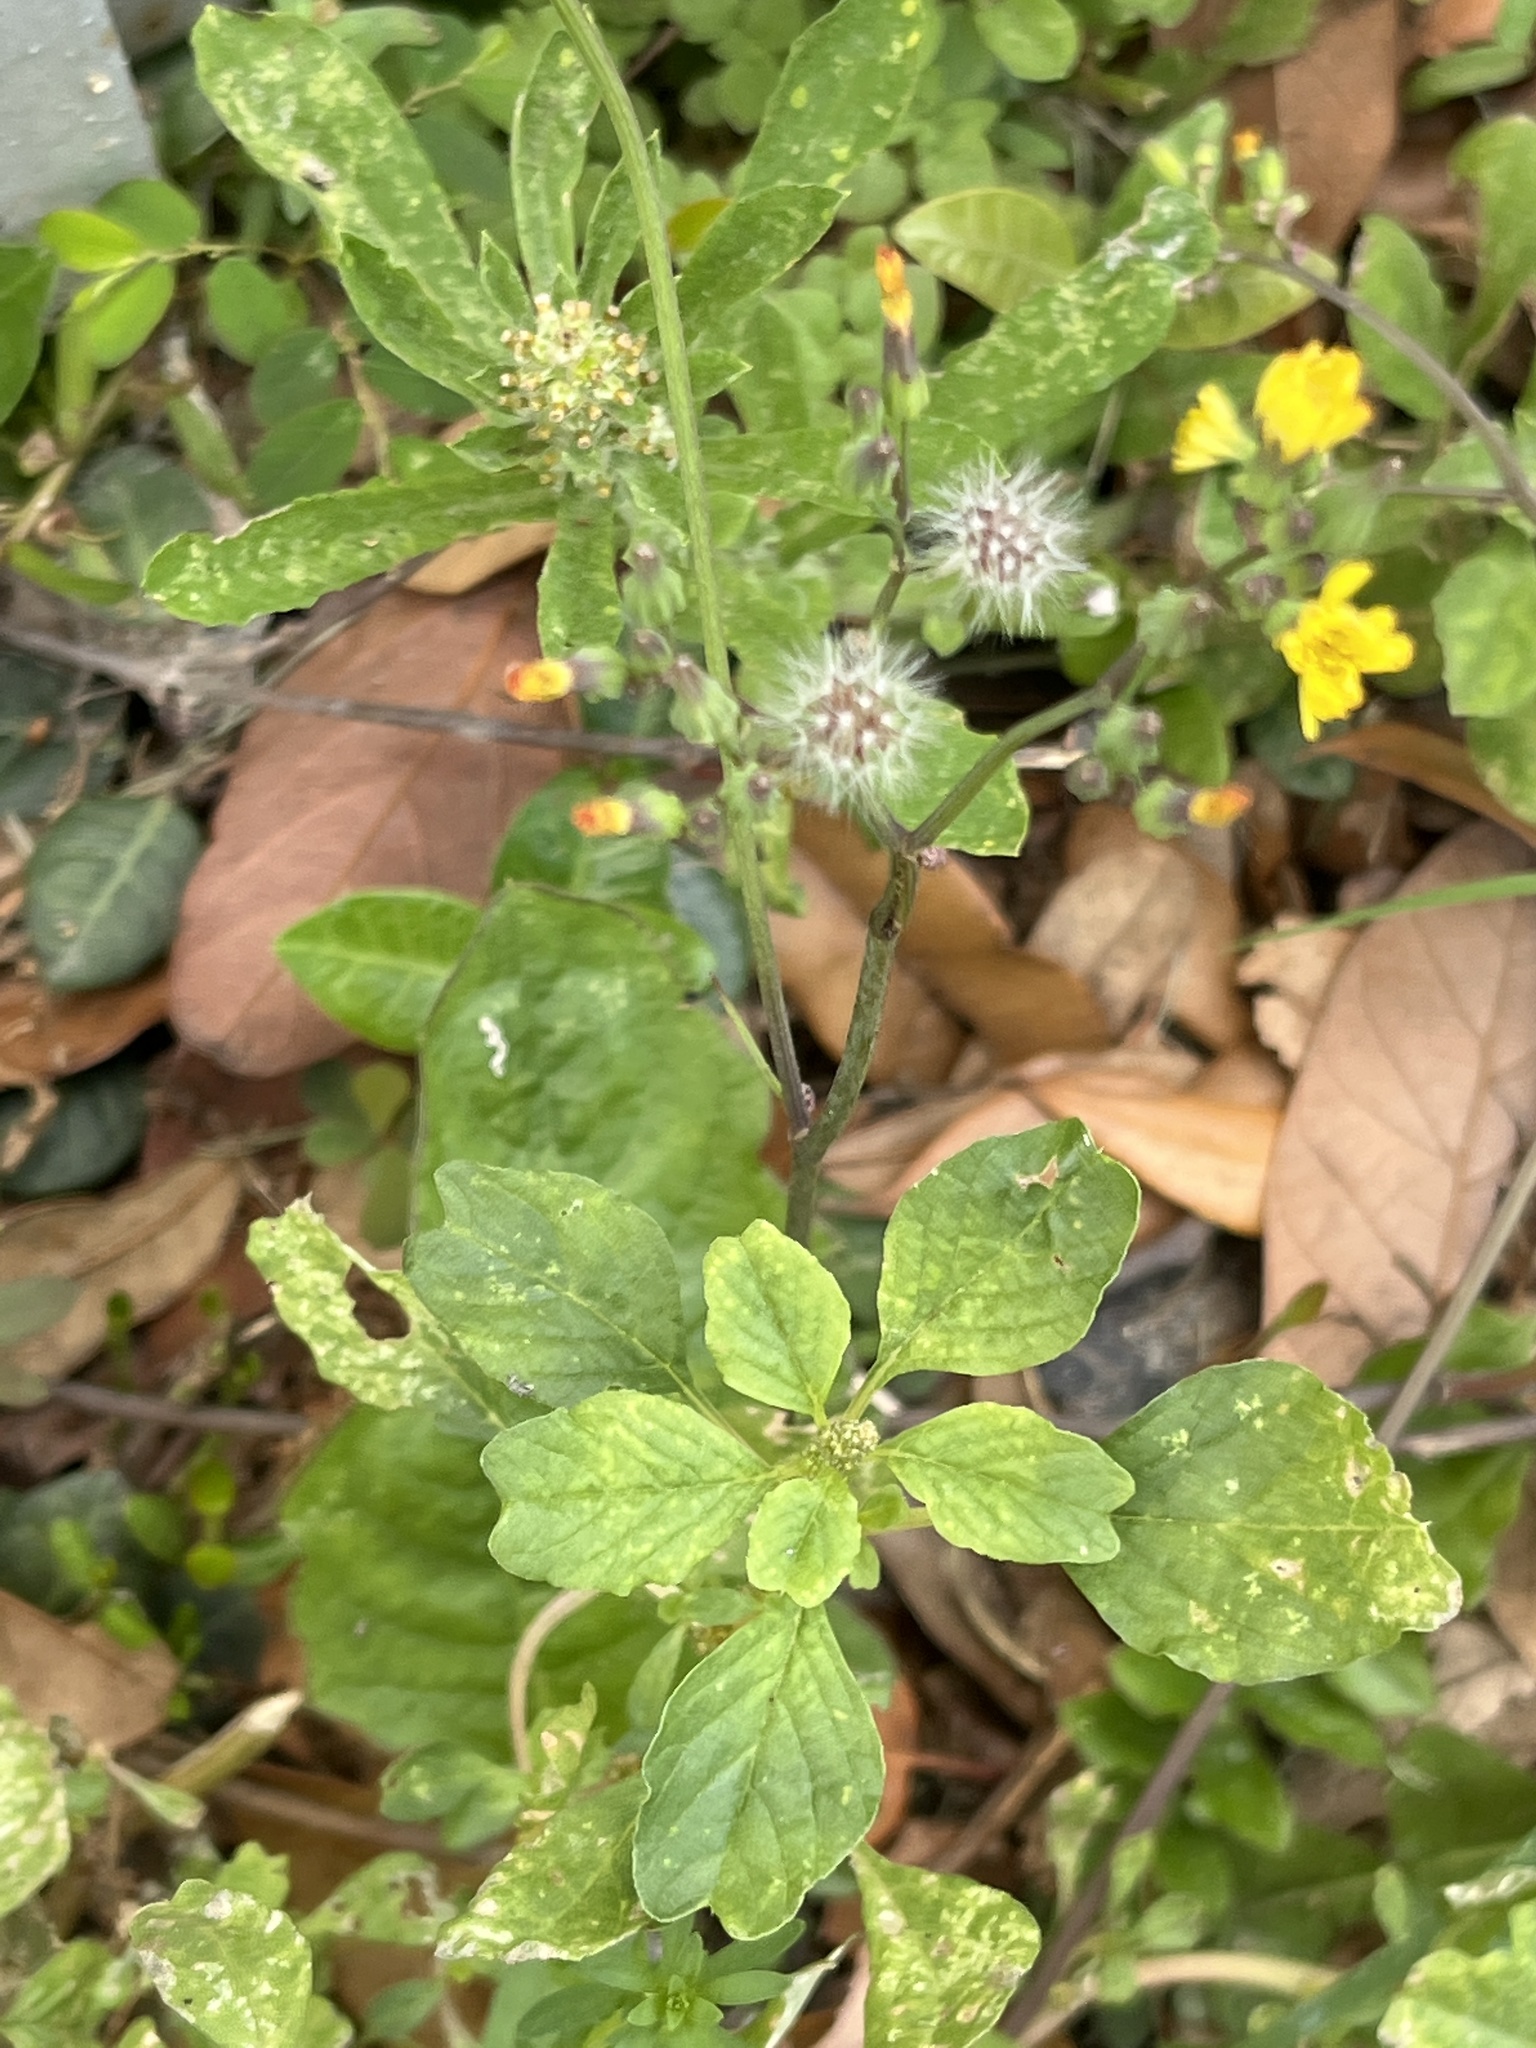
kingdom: Plantae
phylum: Tracheophyta
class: Magnoliopsida
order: Asterales
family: Asteraceae
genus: Youngia
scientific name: Youngia japonica
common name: Oriental false hawksbeard
